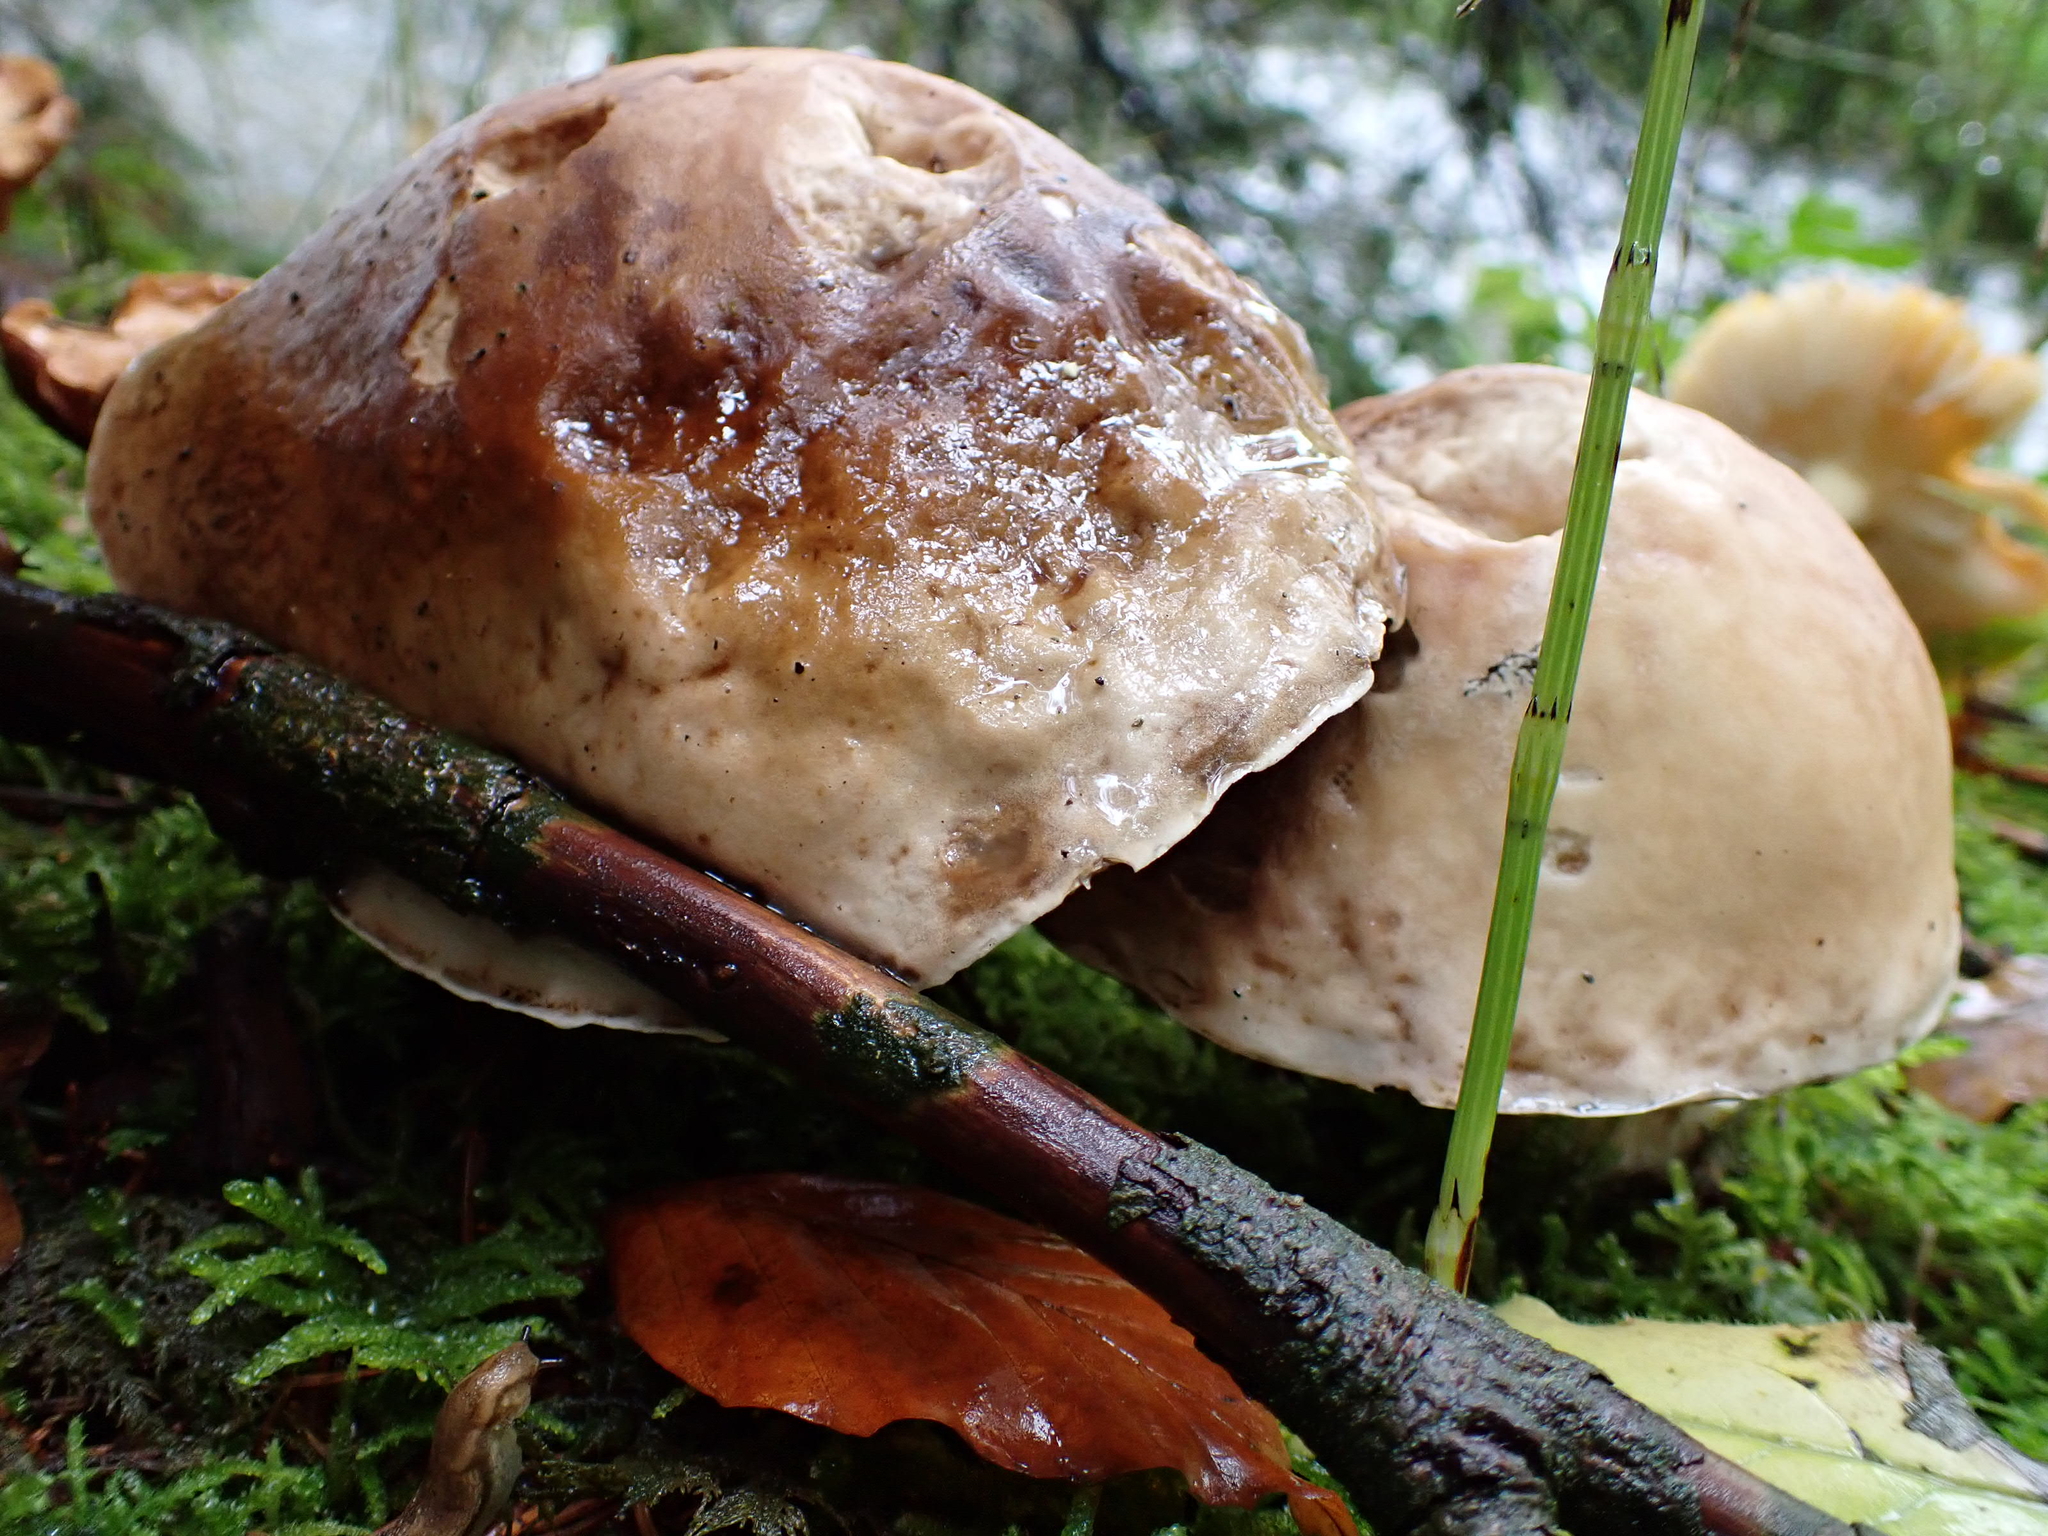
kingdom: Fungi
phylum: Basidiomycota
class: Agaricomycetes
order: Boletales
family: Boletaceae
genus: Boletus
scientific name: Boletus edulis
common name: Cep
